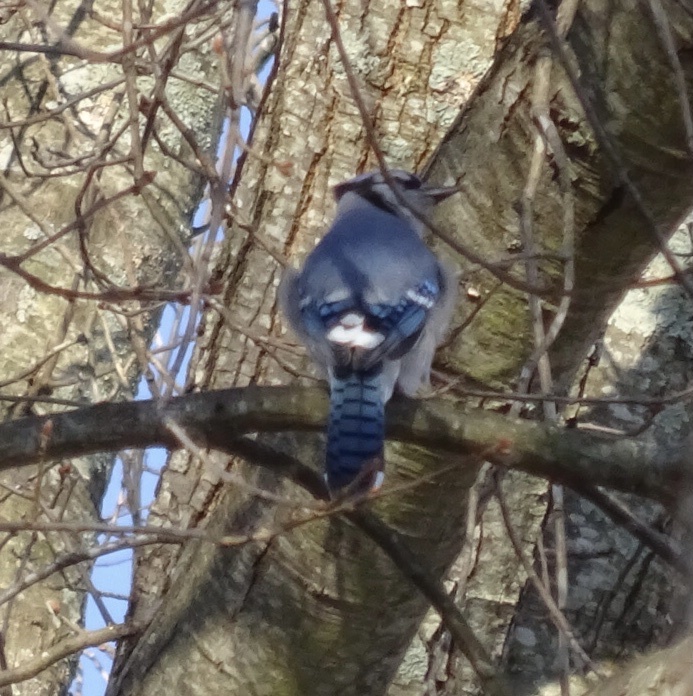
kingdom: Animalia
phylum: Chordata
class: Aves
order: Passeriformes
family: Corvidae
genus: Cyanocitta
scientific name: Cyanocitta cristata
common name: Blue jay
